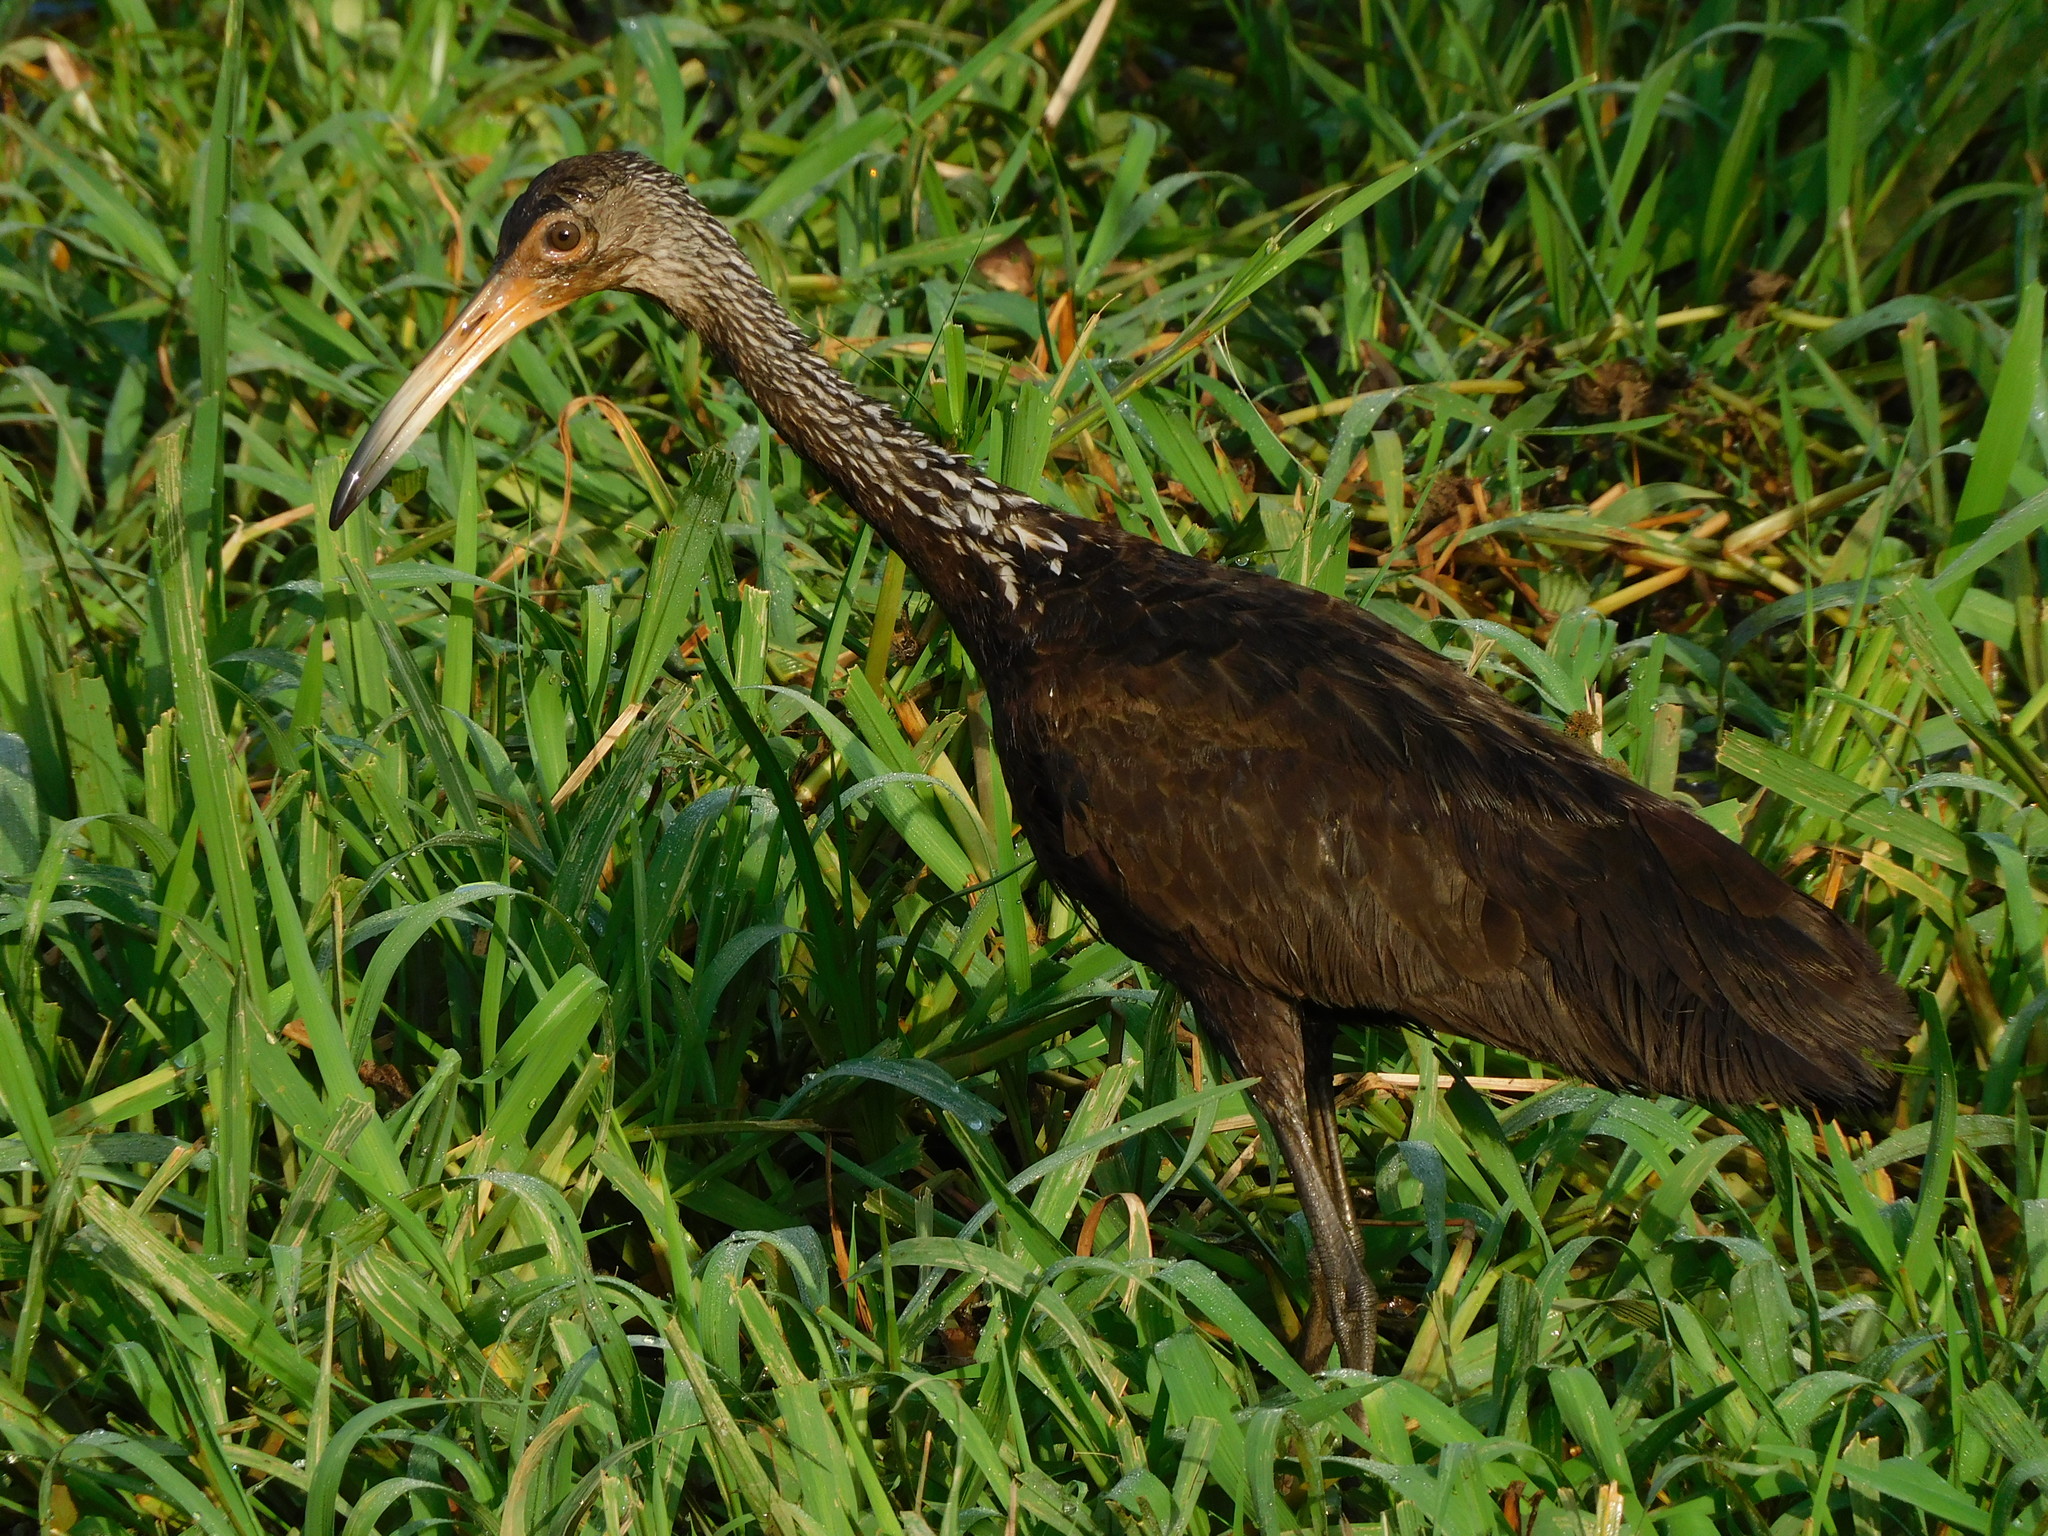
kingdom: Animalia
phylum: Chordata
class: Aves
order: Gruiformes
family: Aramidae
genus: Aramus
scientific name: Aramus guarauna
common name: Limpkin
